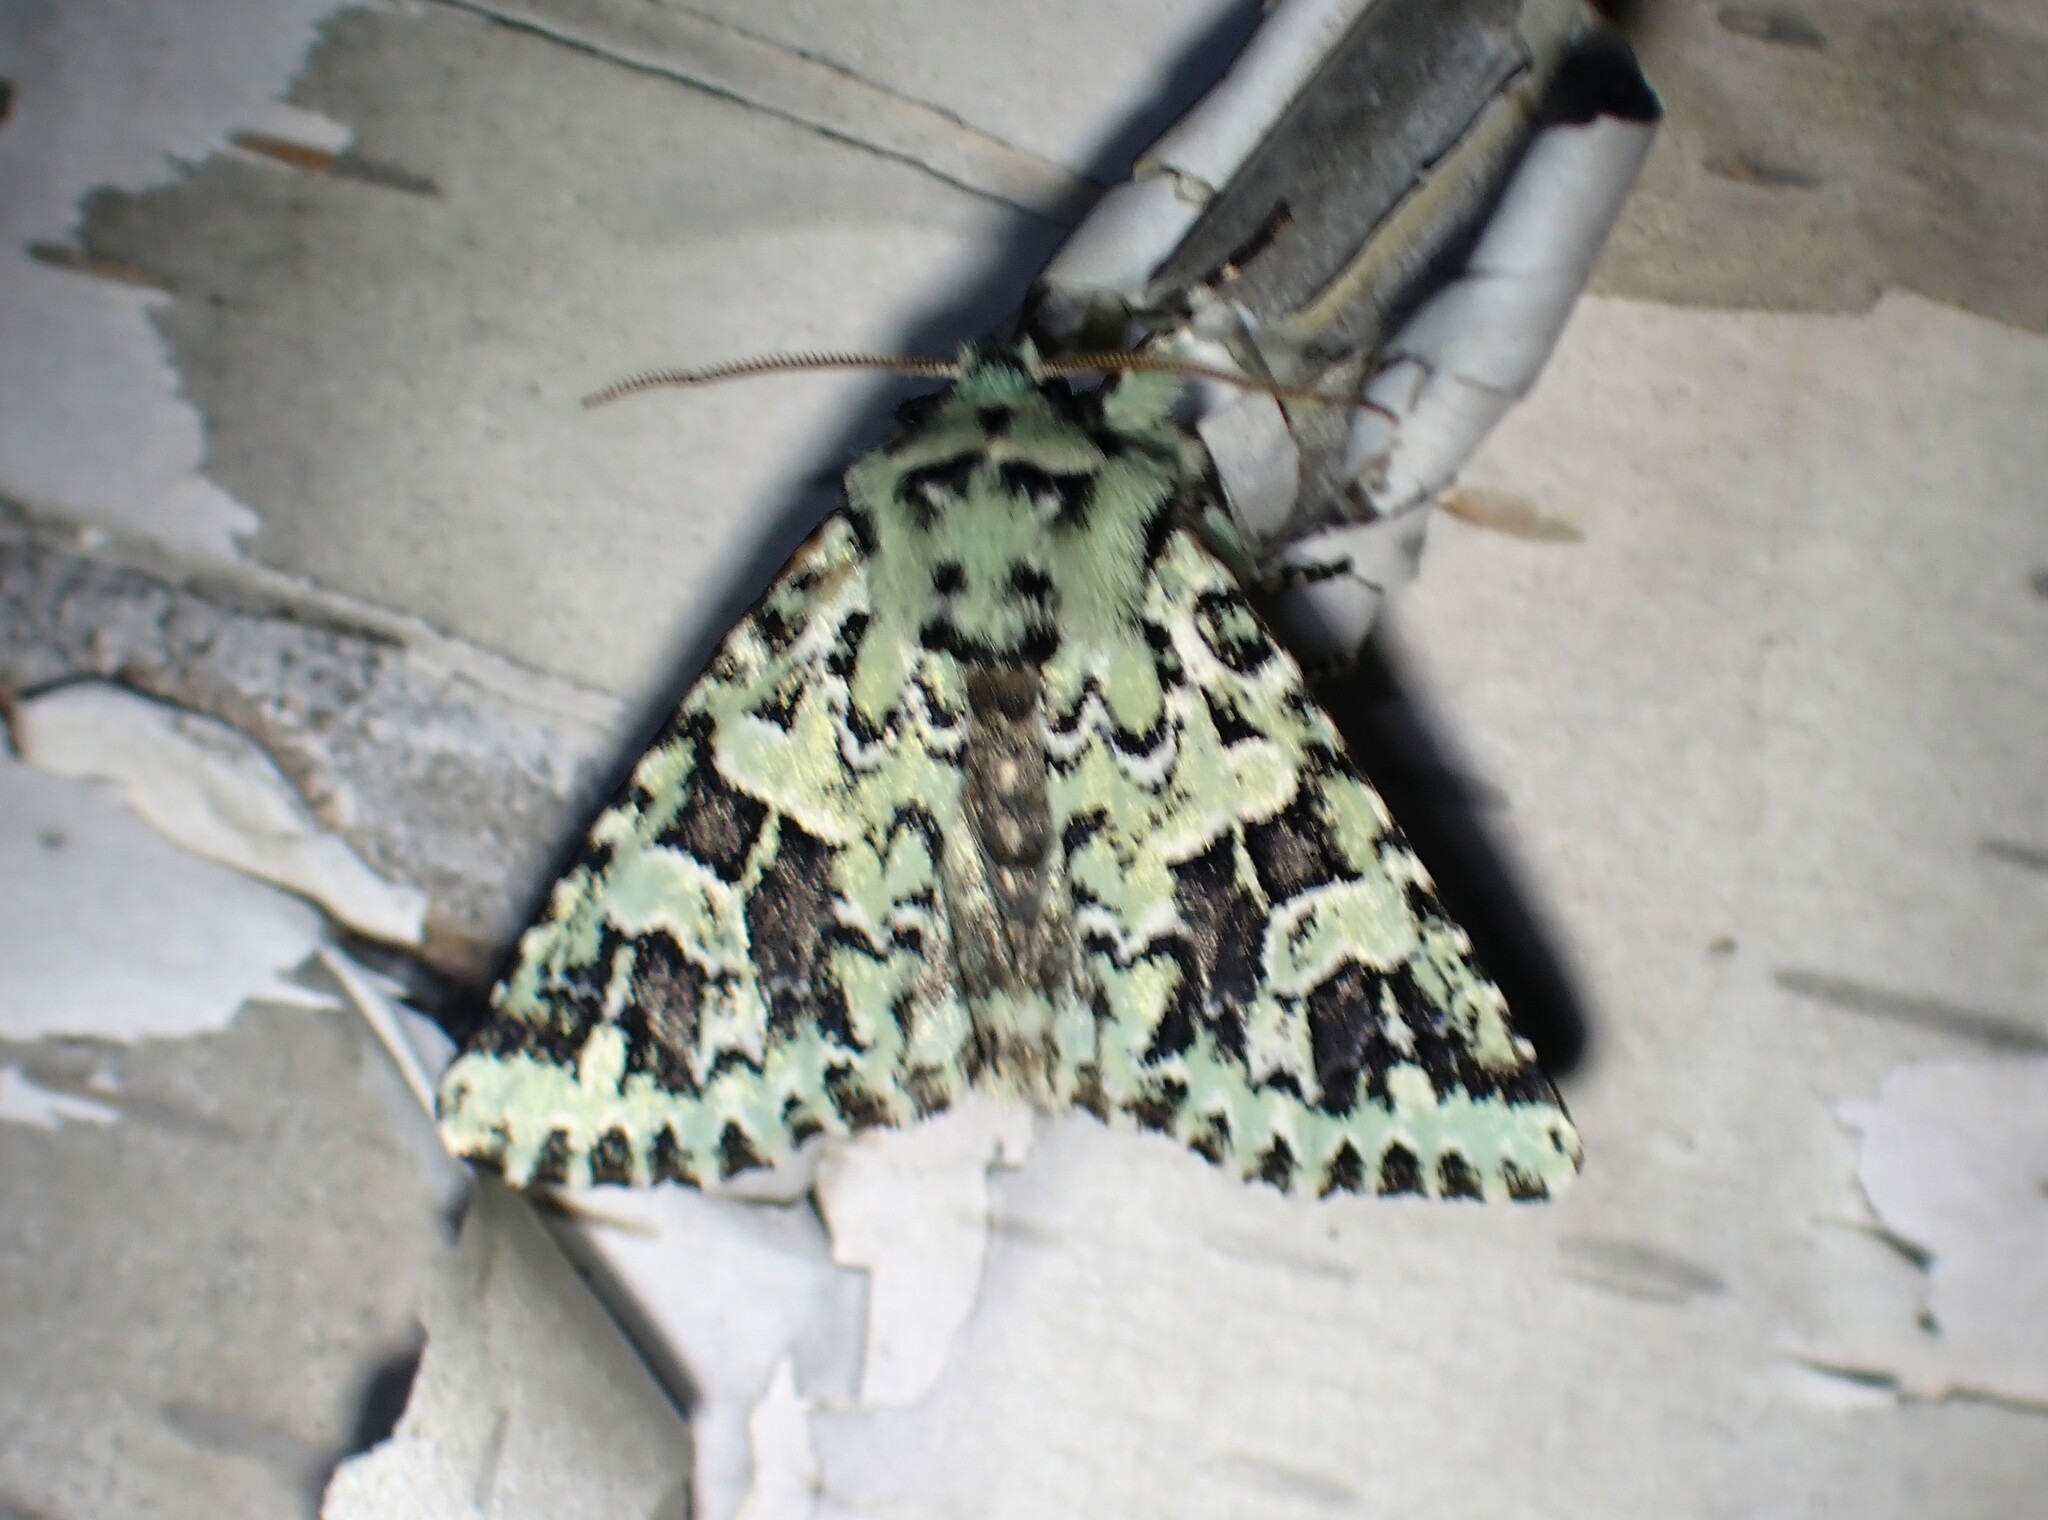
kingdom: Animalia
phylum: Arthropoda
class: Insecta
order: Lepidoptera
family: Noctuidae
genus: Feralia
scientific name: Feralia comstocki
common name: Comstock's sallow
